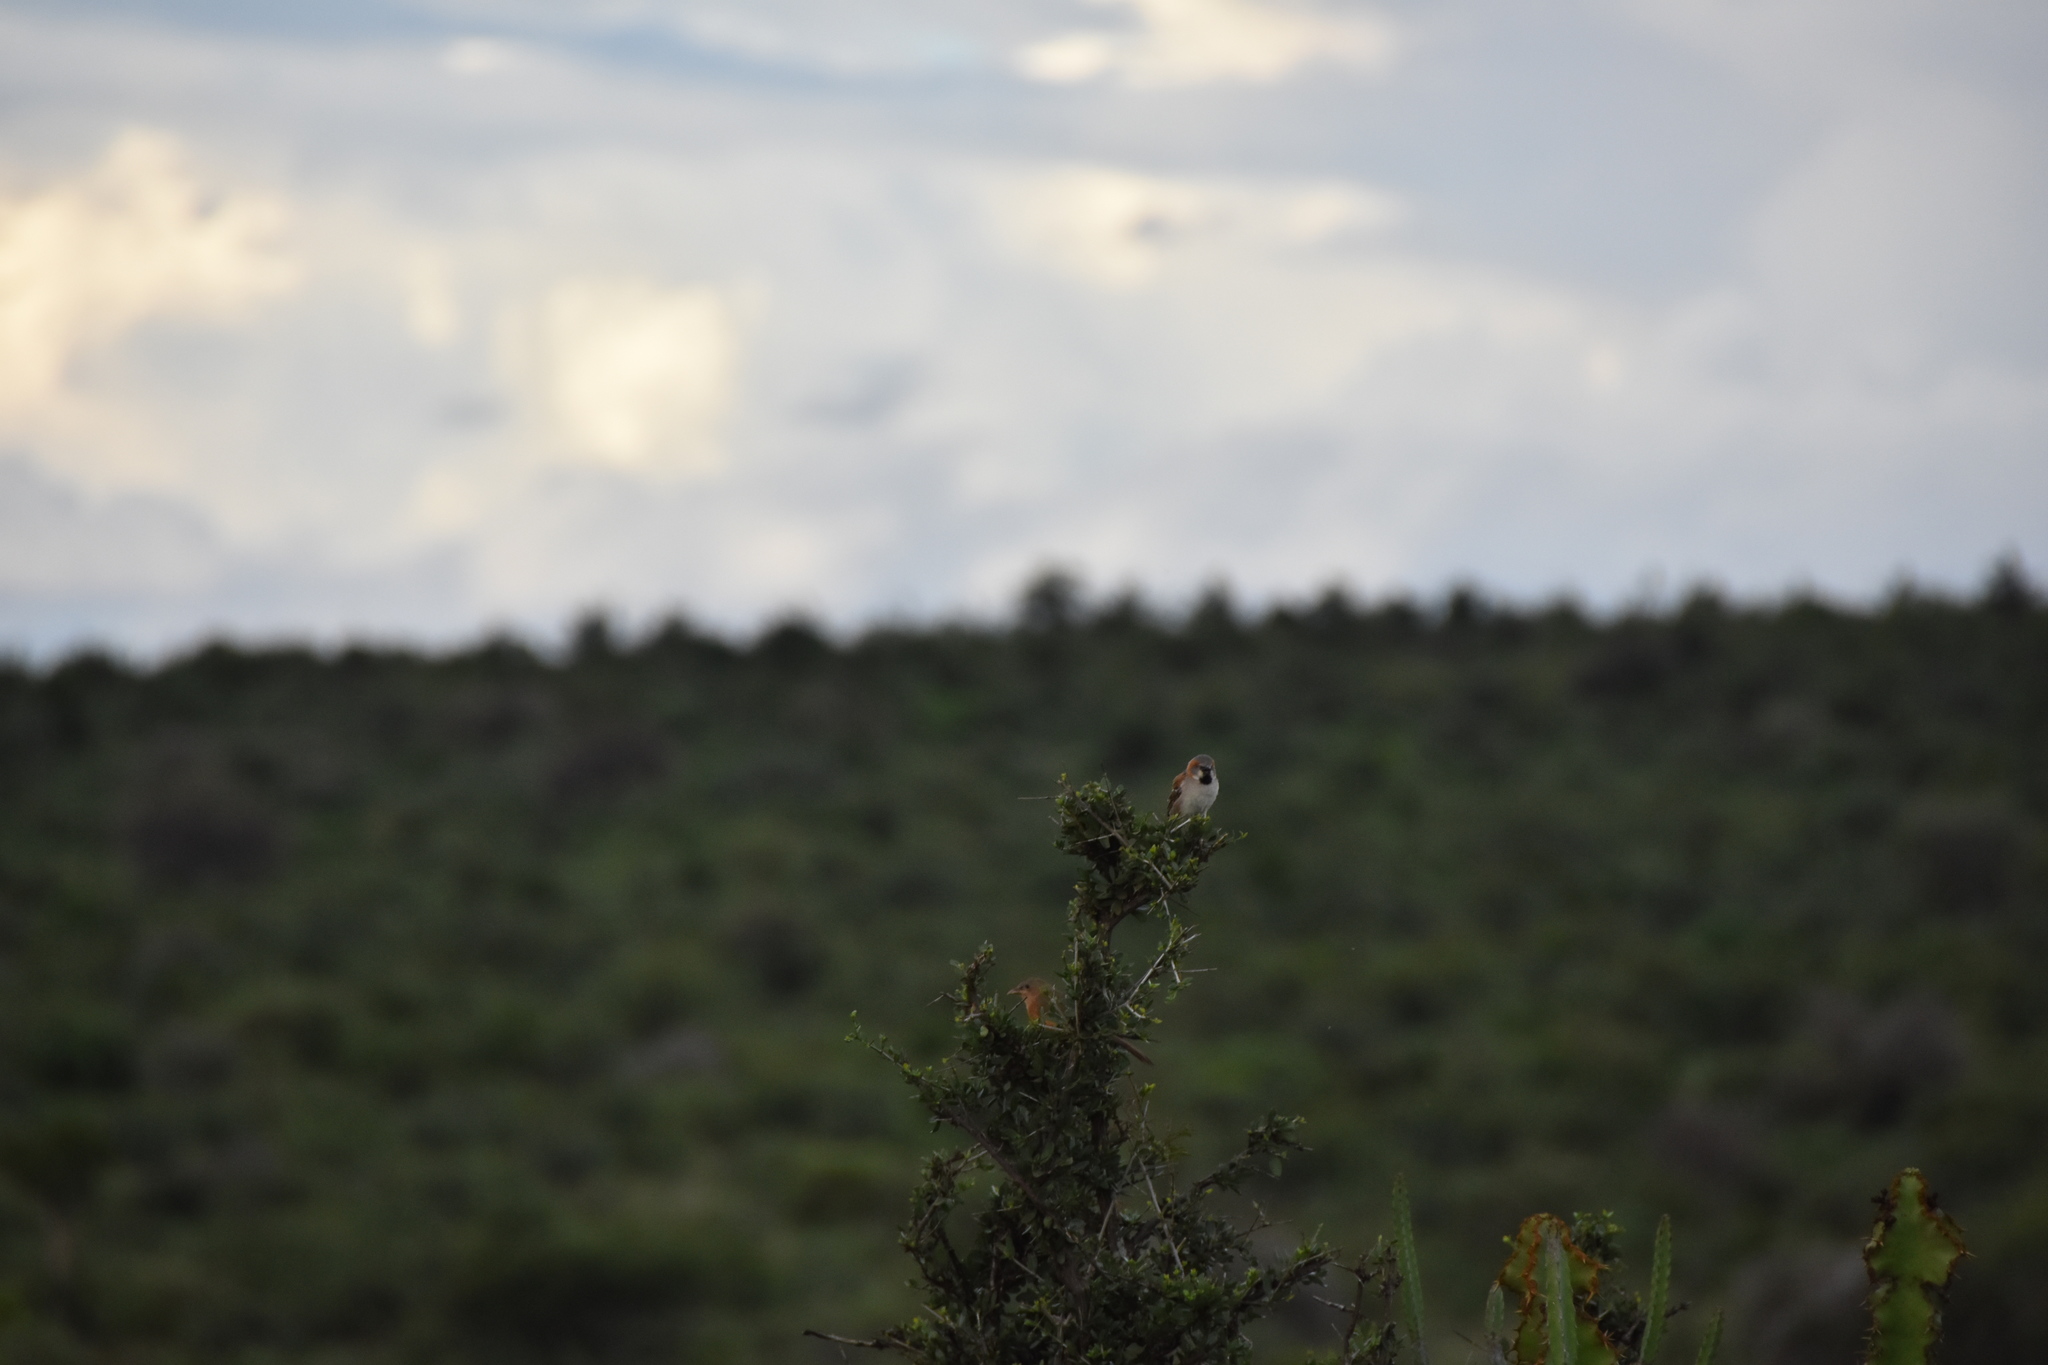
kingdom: Animalia
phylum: Chordata
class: Aves
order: Passeriformes
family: Passeridae
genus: Passer
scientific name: Passer rufocinctus
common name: Kenya sparrow
